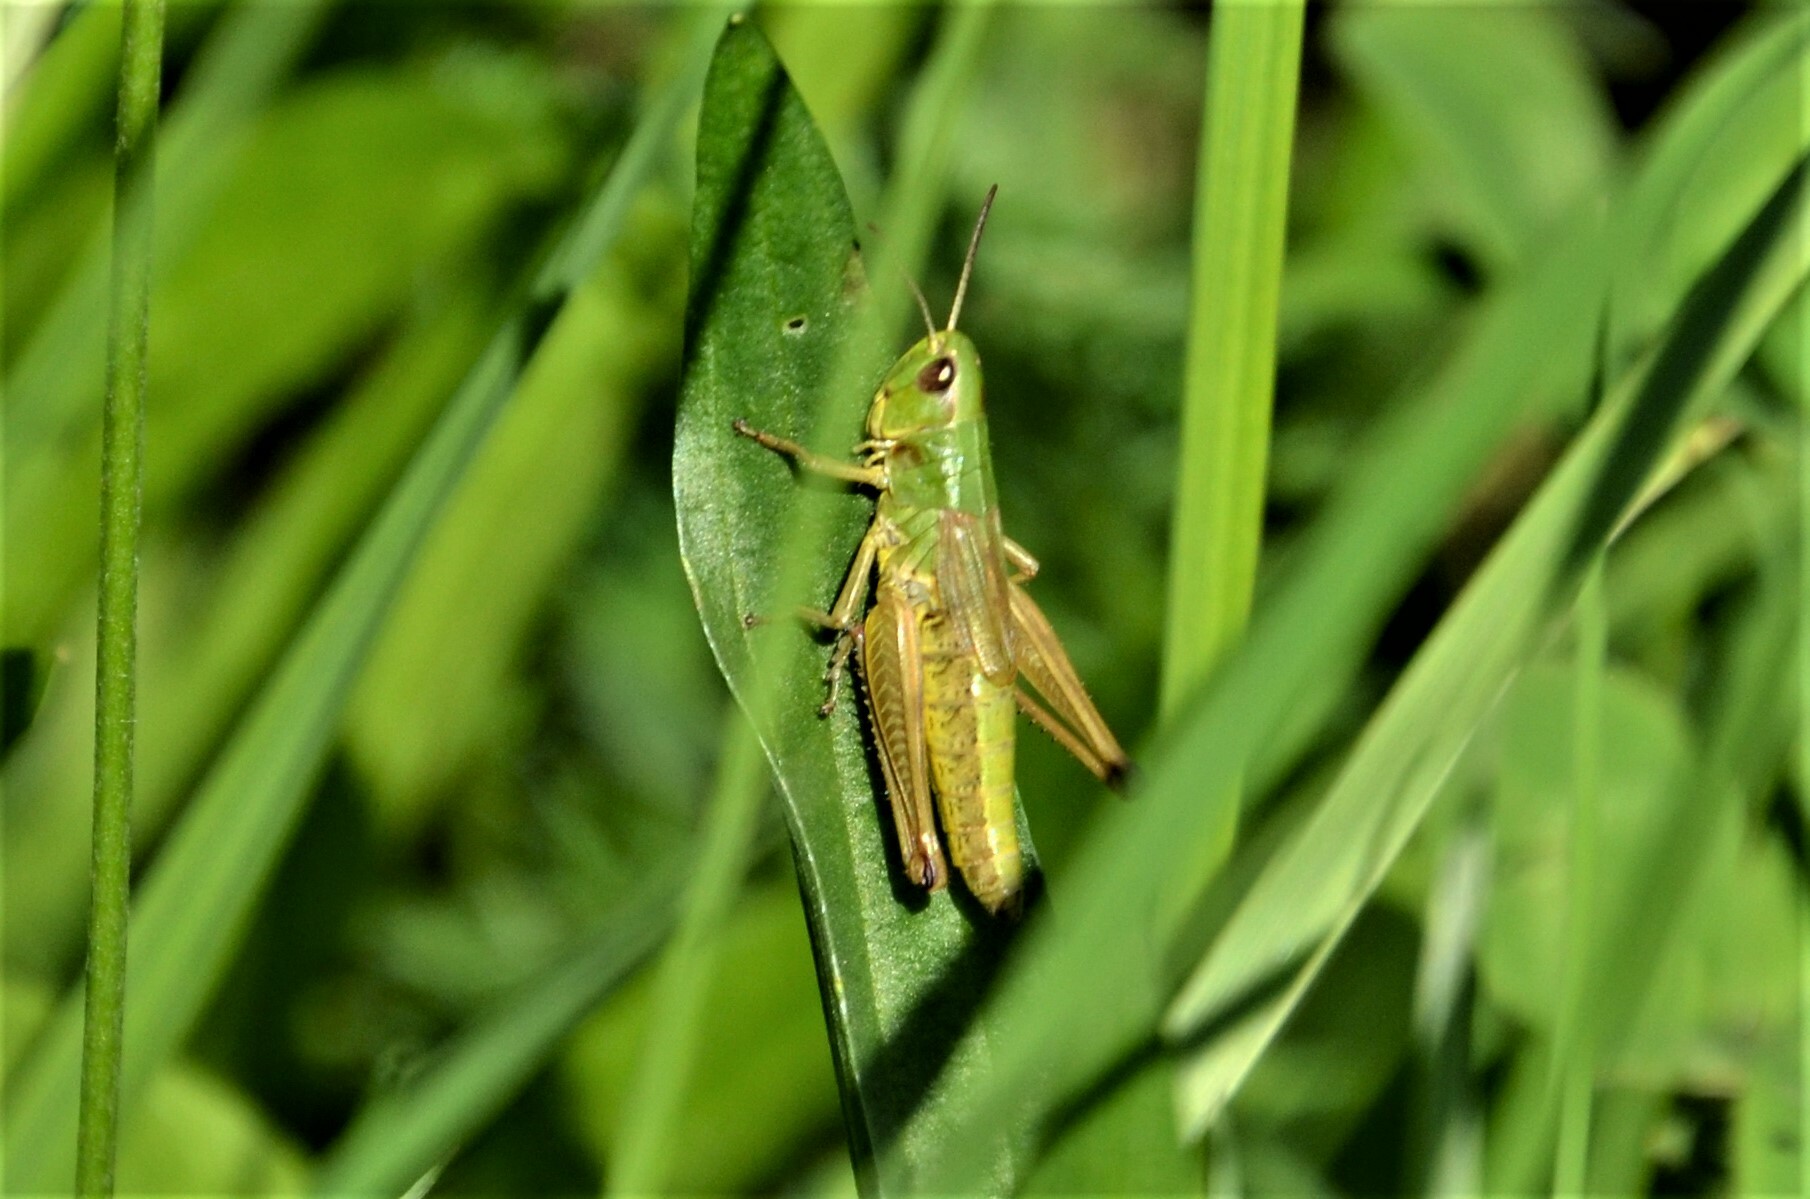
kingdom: Animalia
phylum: Arthropoda
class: Insecta
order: Orthoptera
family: Acrididae
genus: Pseudochorthippus
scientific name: Pseudochorthippus parallelus
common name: Meadow grasshopper
